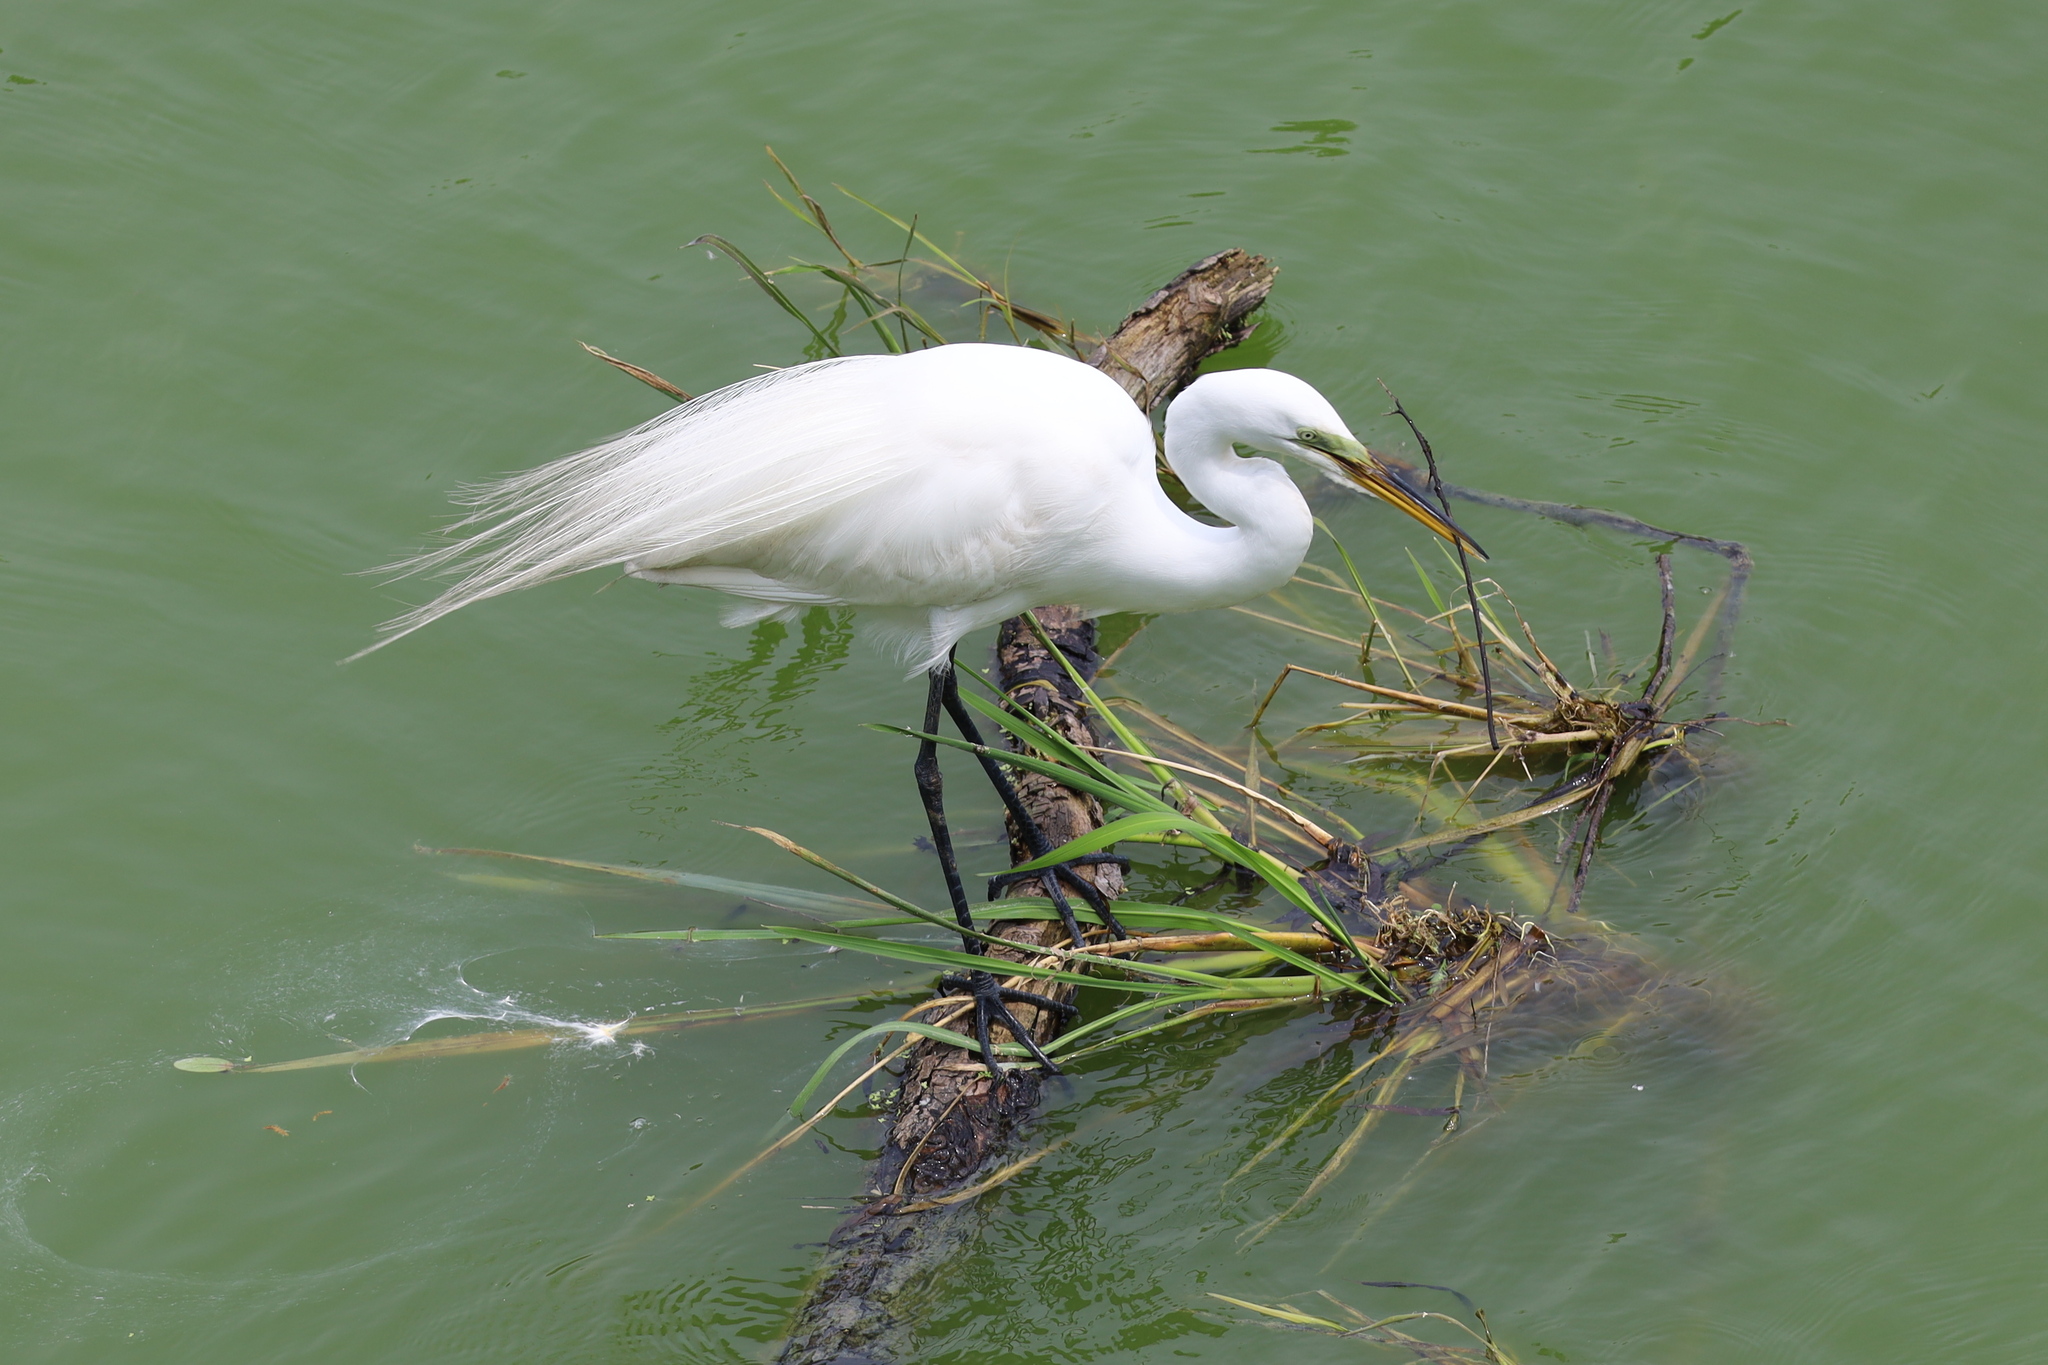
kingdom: Animalia
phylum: Chordata
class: Aves
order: Pelecaniformes
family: Ardeidae
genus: Ardea
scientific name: Ardea alba
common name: Great egret
